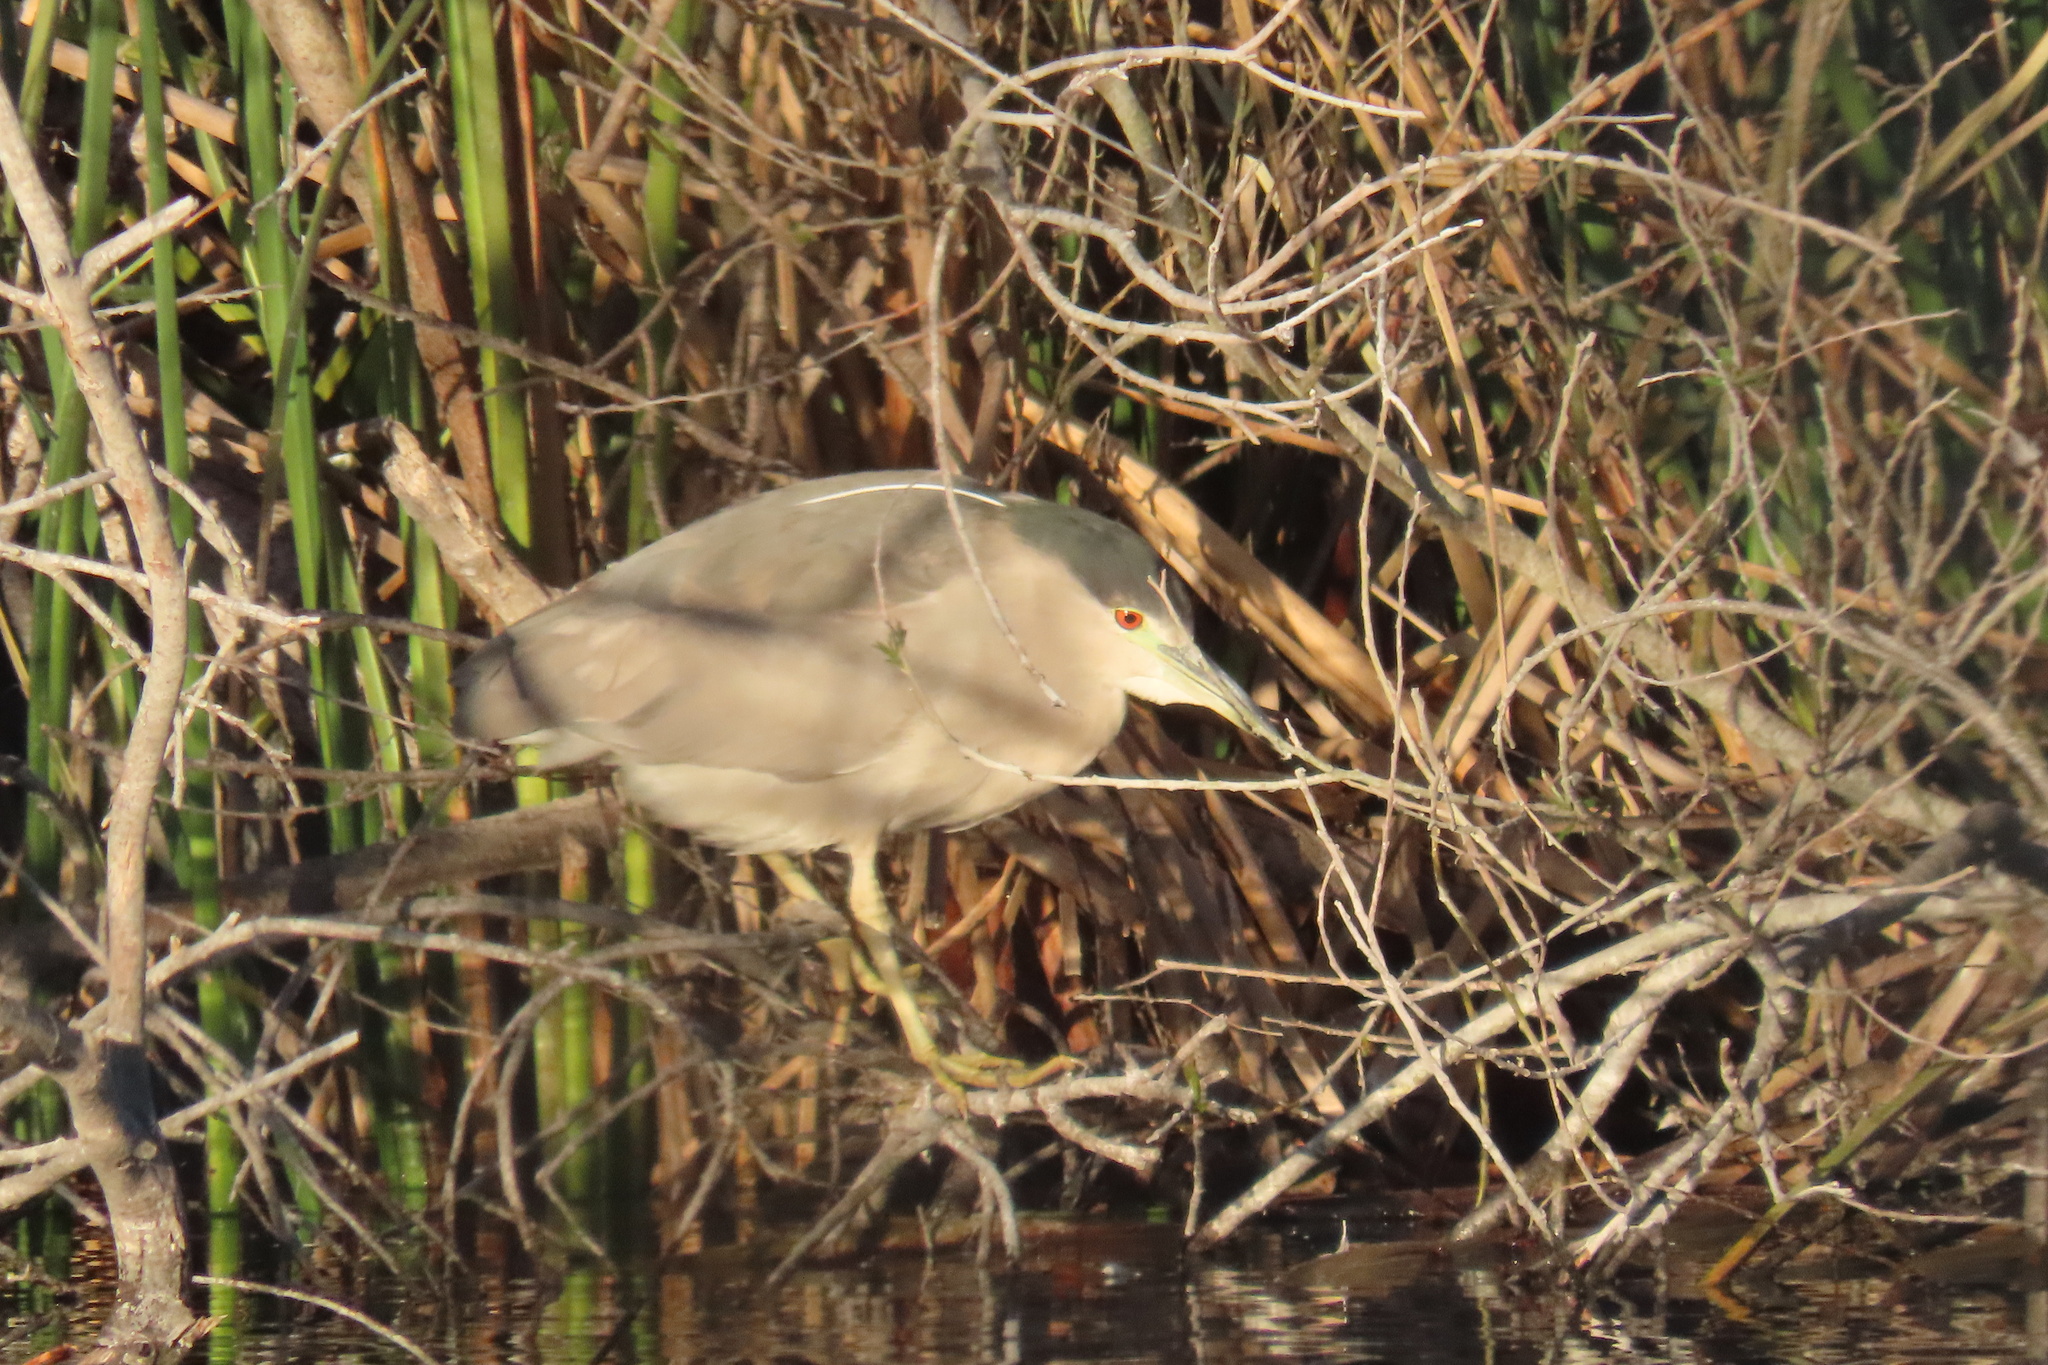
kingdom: Animalia
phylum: Chordata
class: Aves
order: Pelecaniformes
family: Ardeidae
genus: Nycticorax
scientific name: Nycticorax nycticorax
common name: Black-crowned night heron
